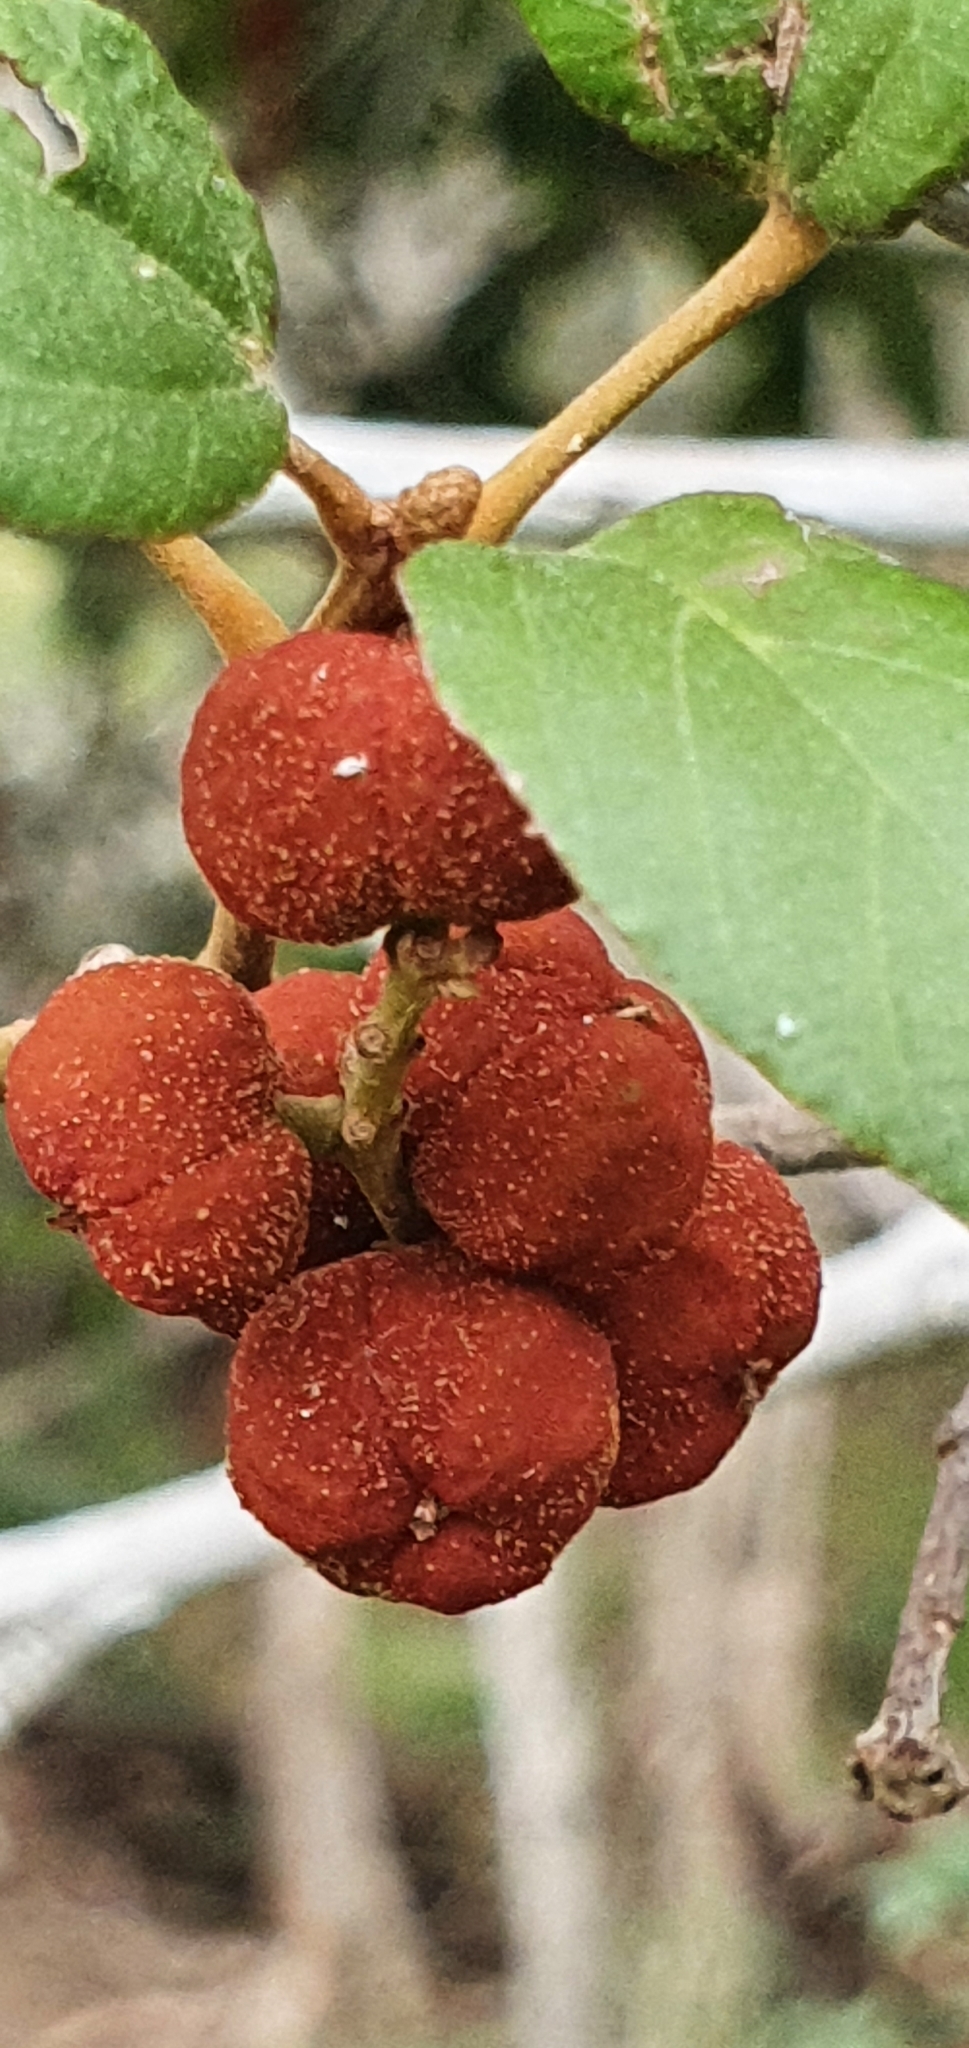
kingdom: Plantae
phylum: Tracheophyta
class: Magnoliopsida
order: Malpighiales
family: Euphorbiaceae
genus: Mallotus
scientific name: Mallotus philippensis
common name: Kamala tree
